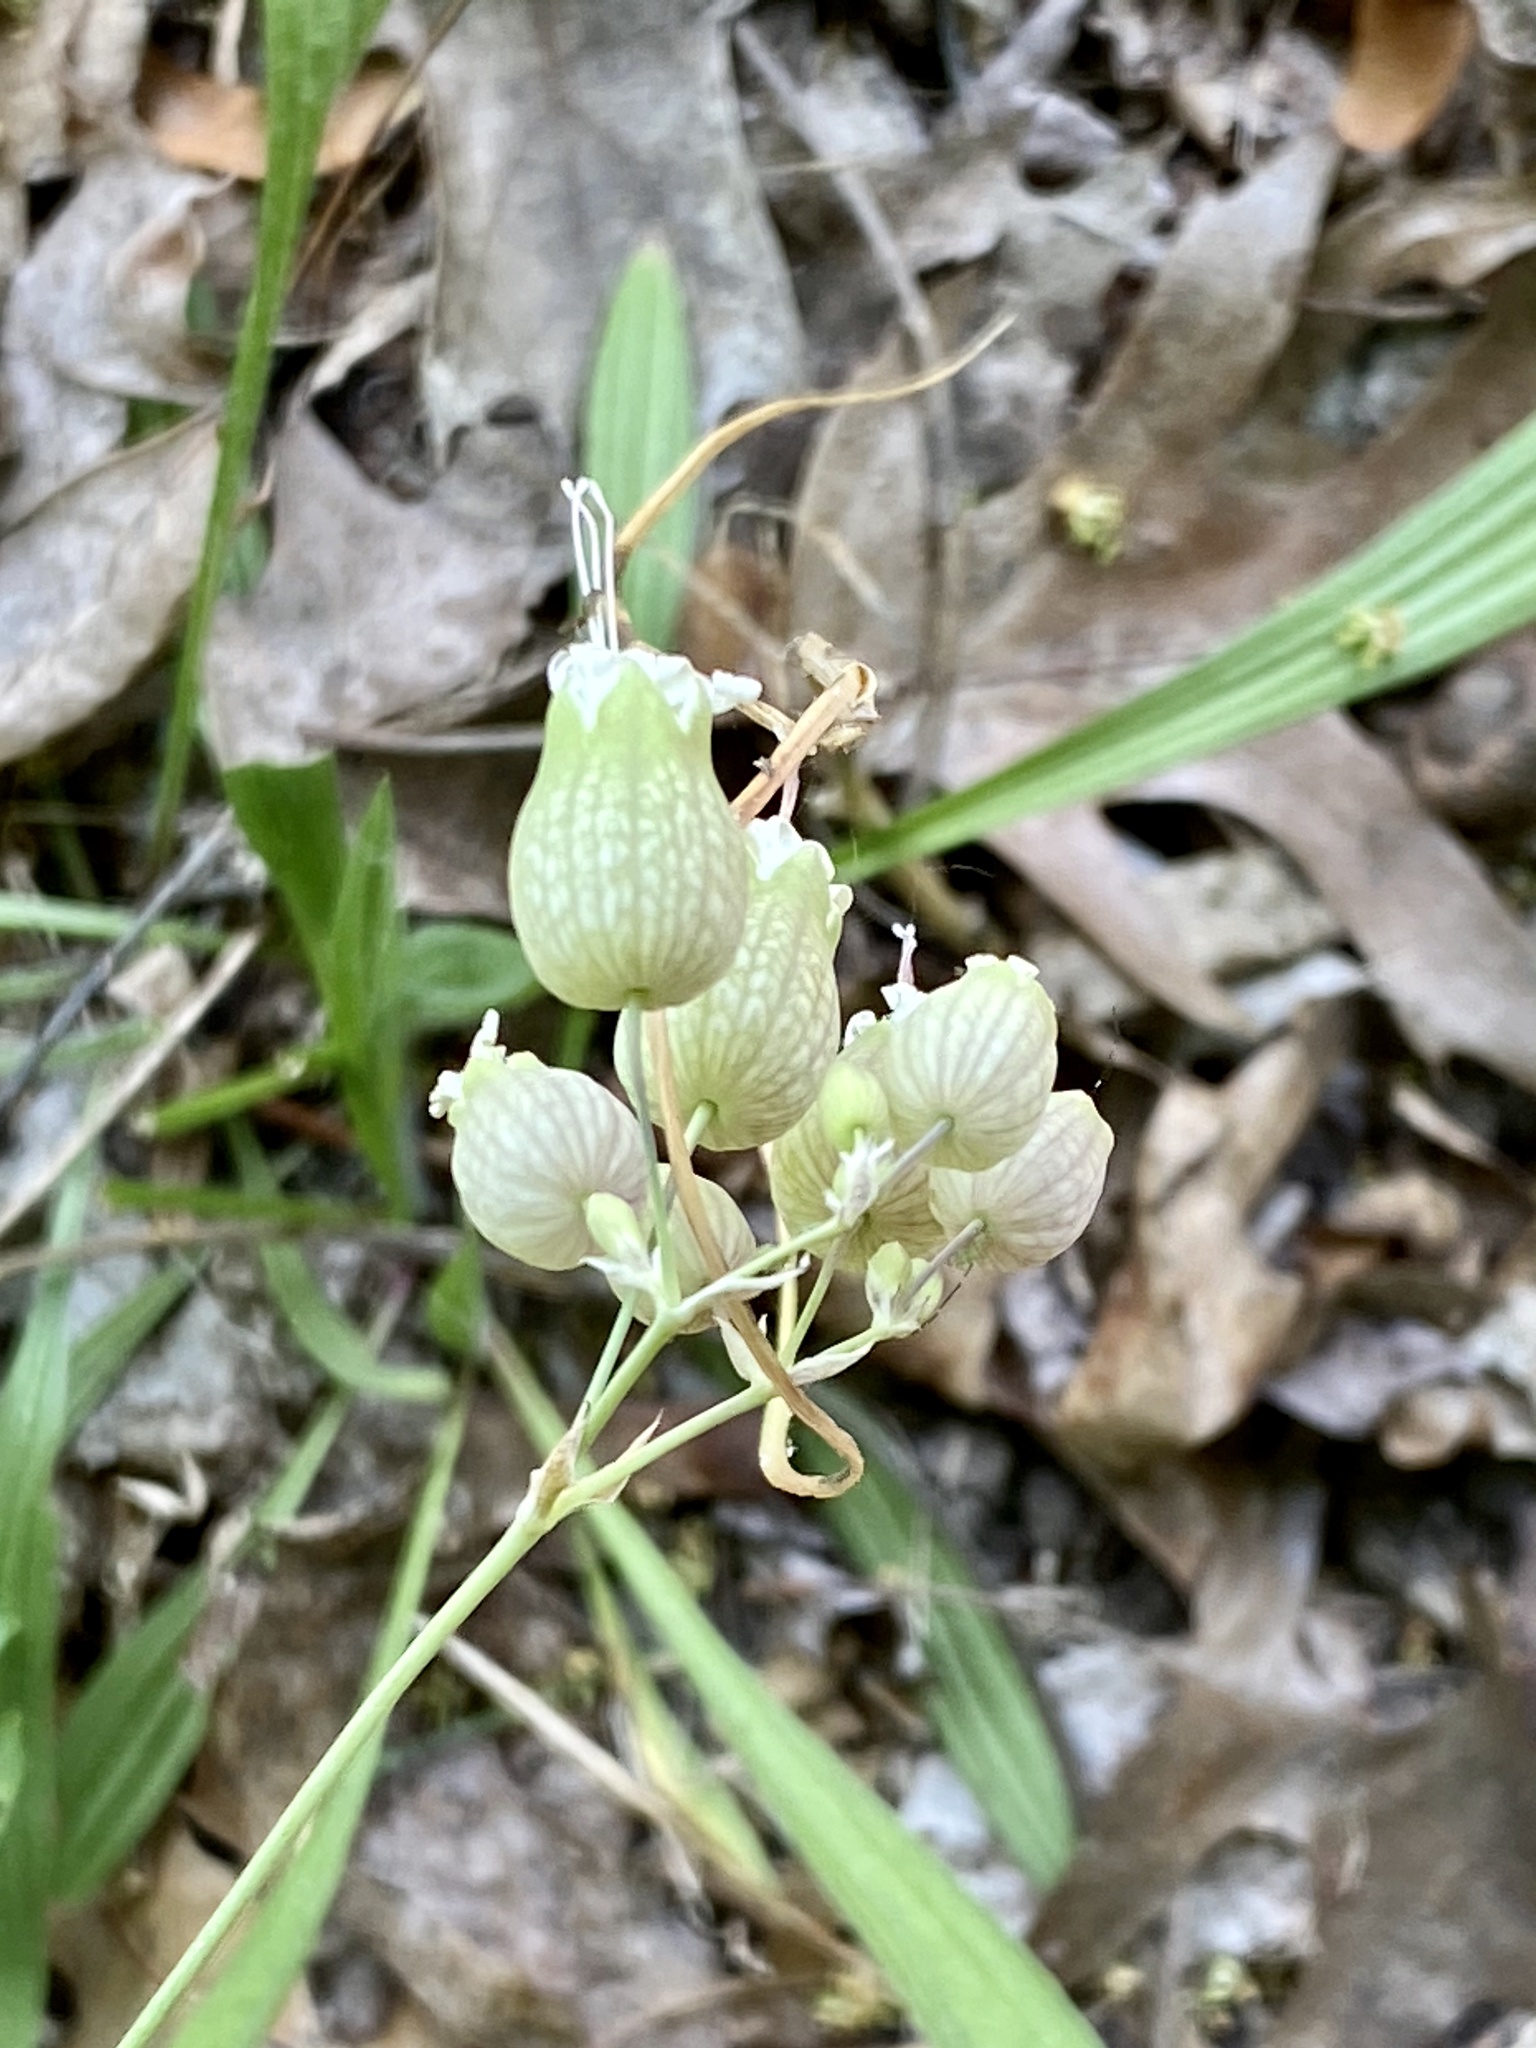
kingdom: Plantae
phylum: Tracheophyta
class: Magnoliopsida
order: Caryophyllales
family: Caryophyllaceae
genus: Silene
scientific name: Silene vulgaris
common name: Bladder campion
